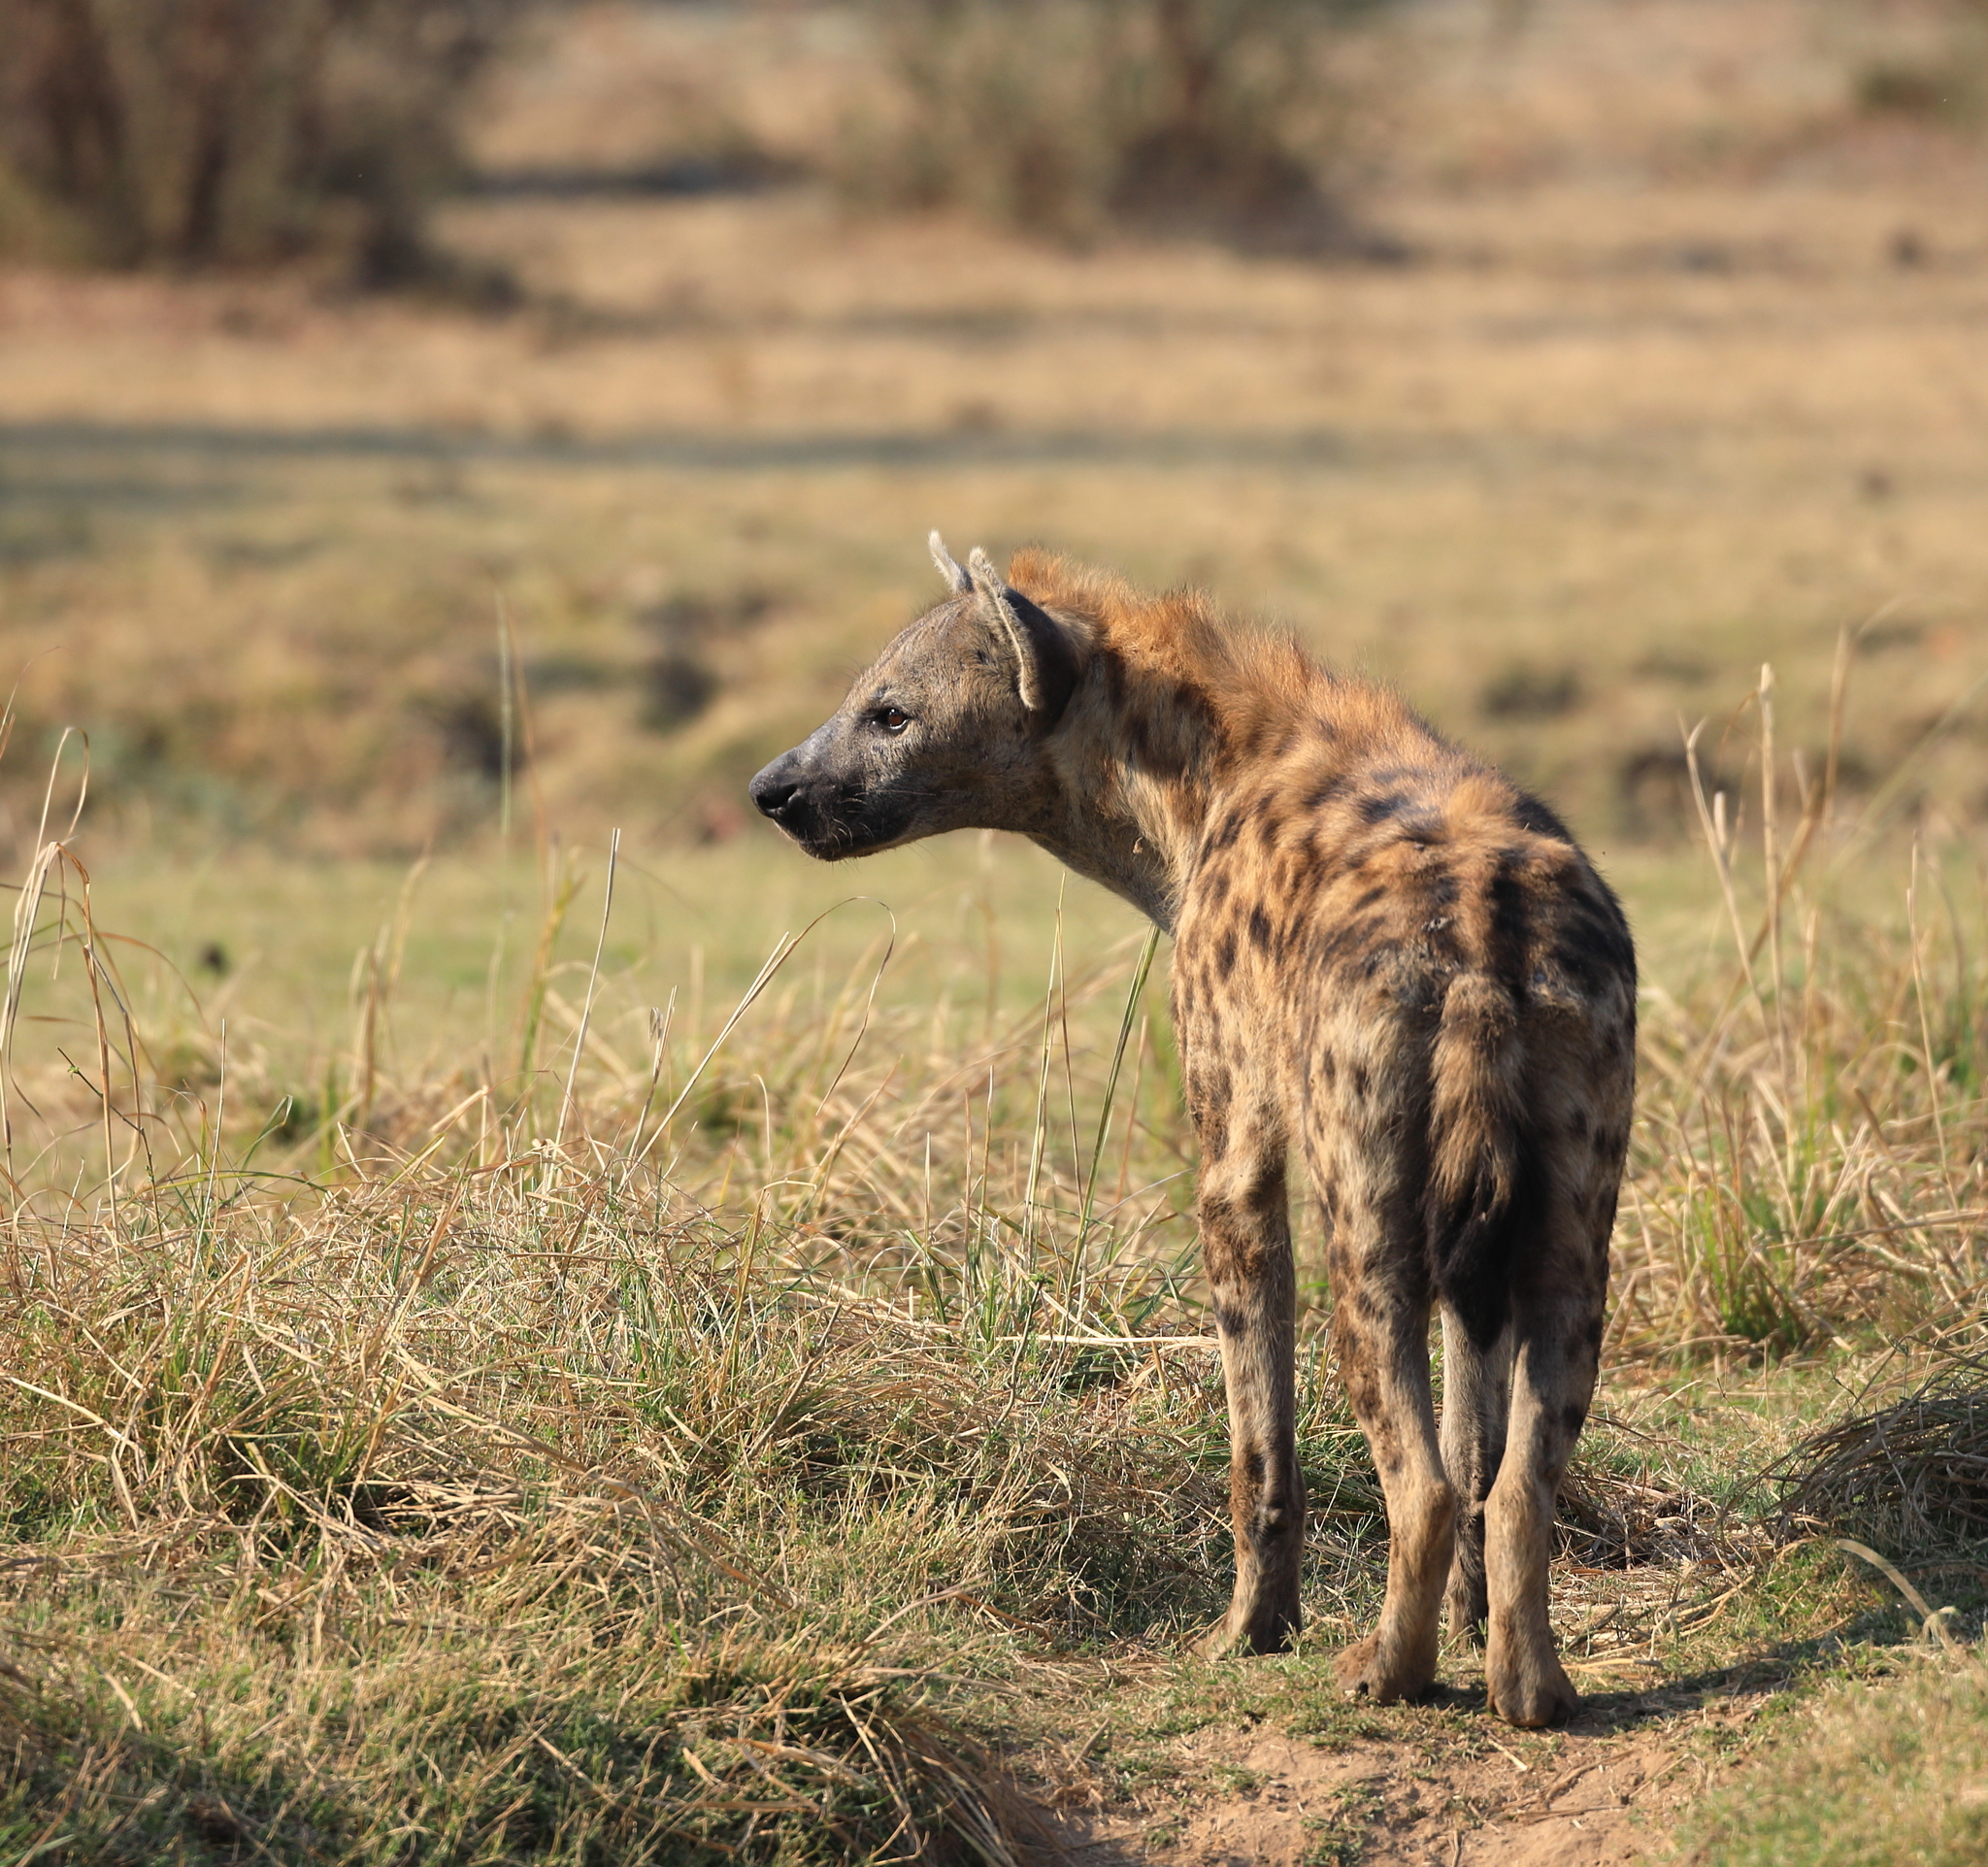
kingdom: Animalia
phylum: Chordata
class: Mammalia
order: Carnivora
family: Hyaenidae
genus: Crocuta
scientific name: Crocuta crocuta
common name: Spotted hyaena
